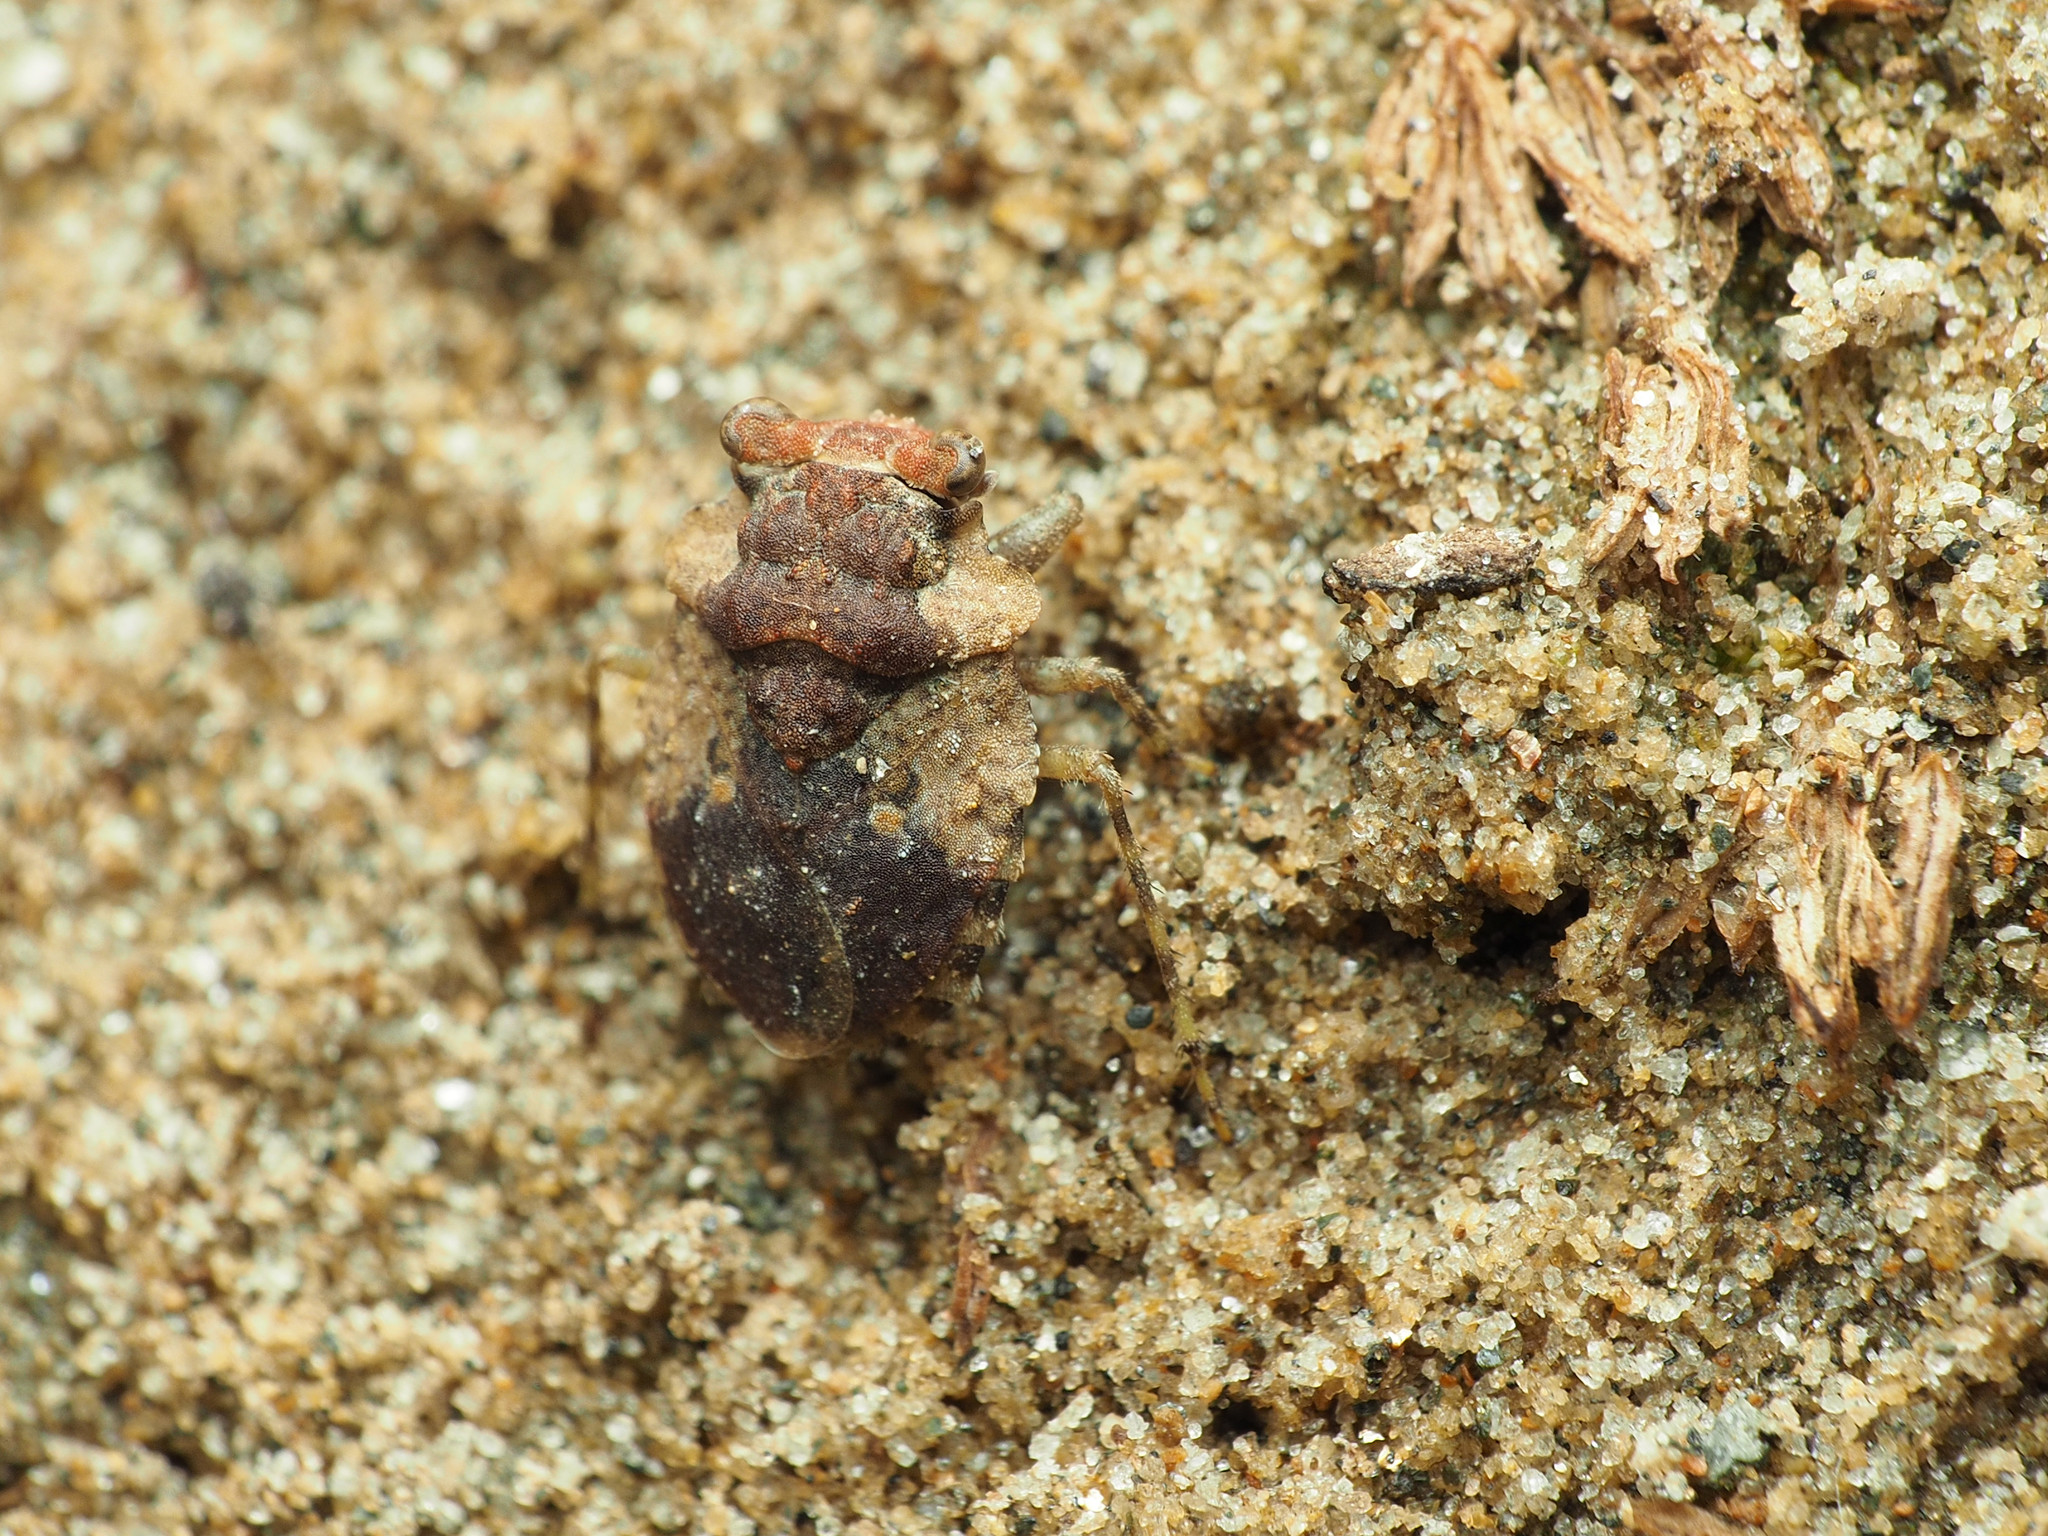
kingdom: Animalia
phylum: Arthropoda
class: Insecta
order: Hemiptera
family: Gelastocoridae
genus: Gelastocoris
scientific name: Gelastocoris oculatus
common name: Toad bug
